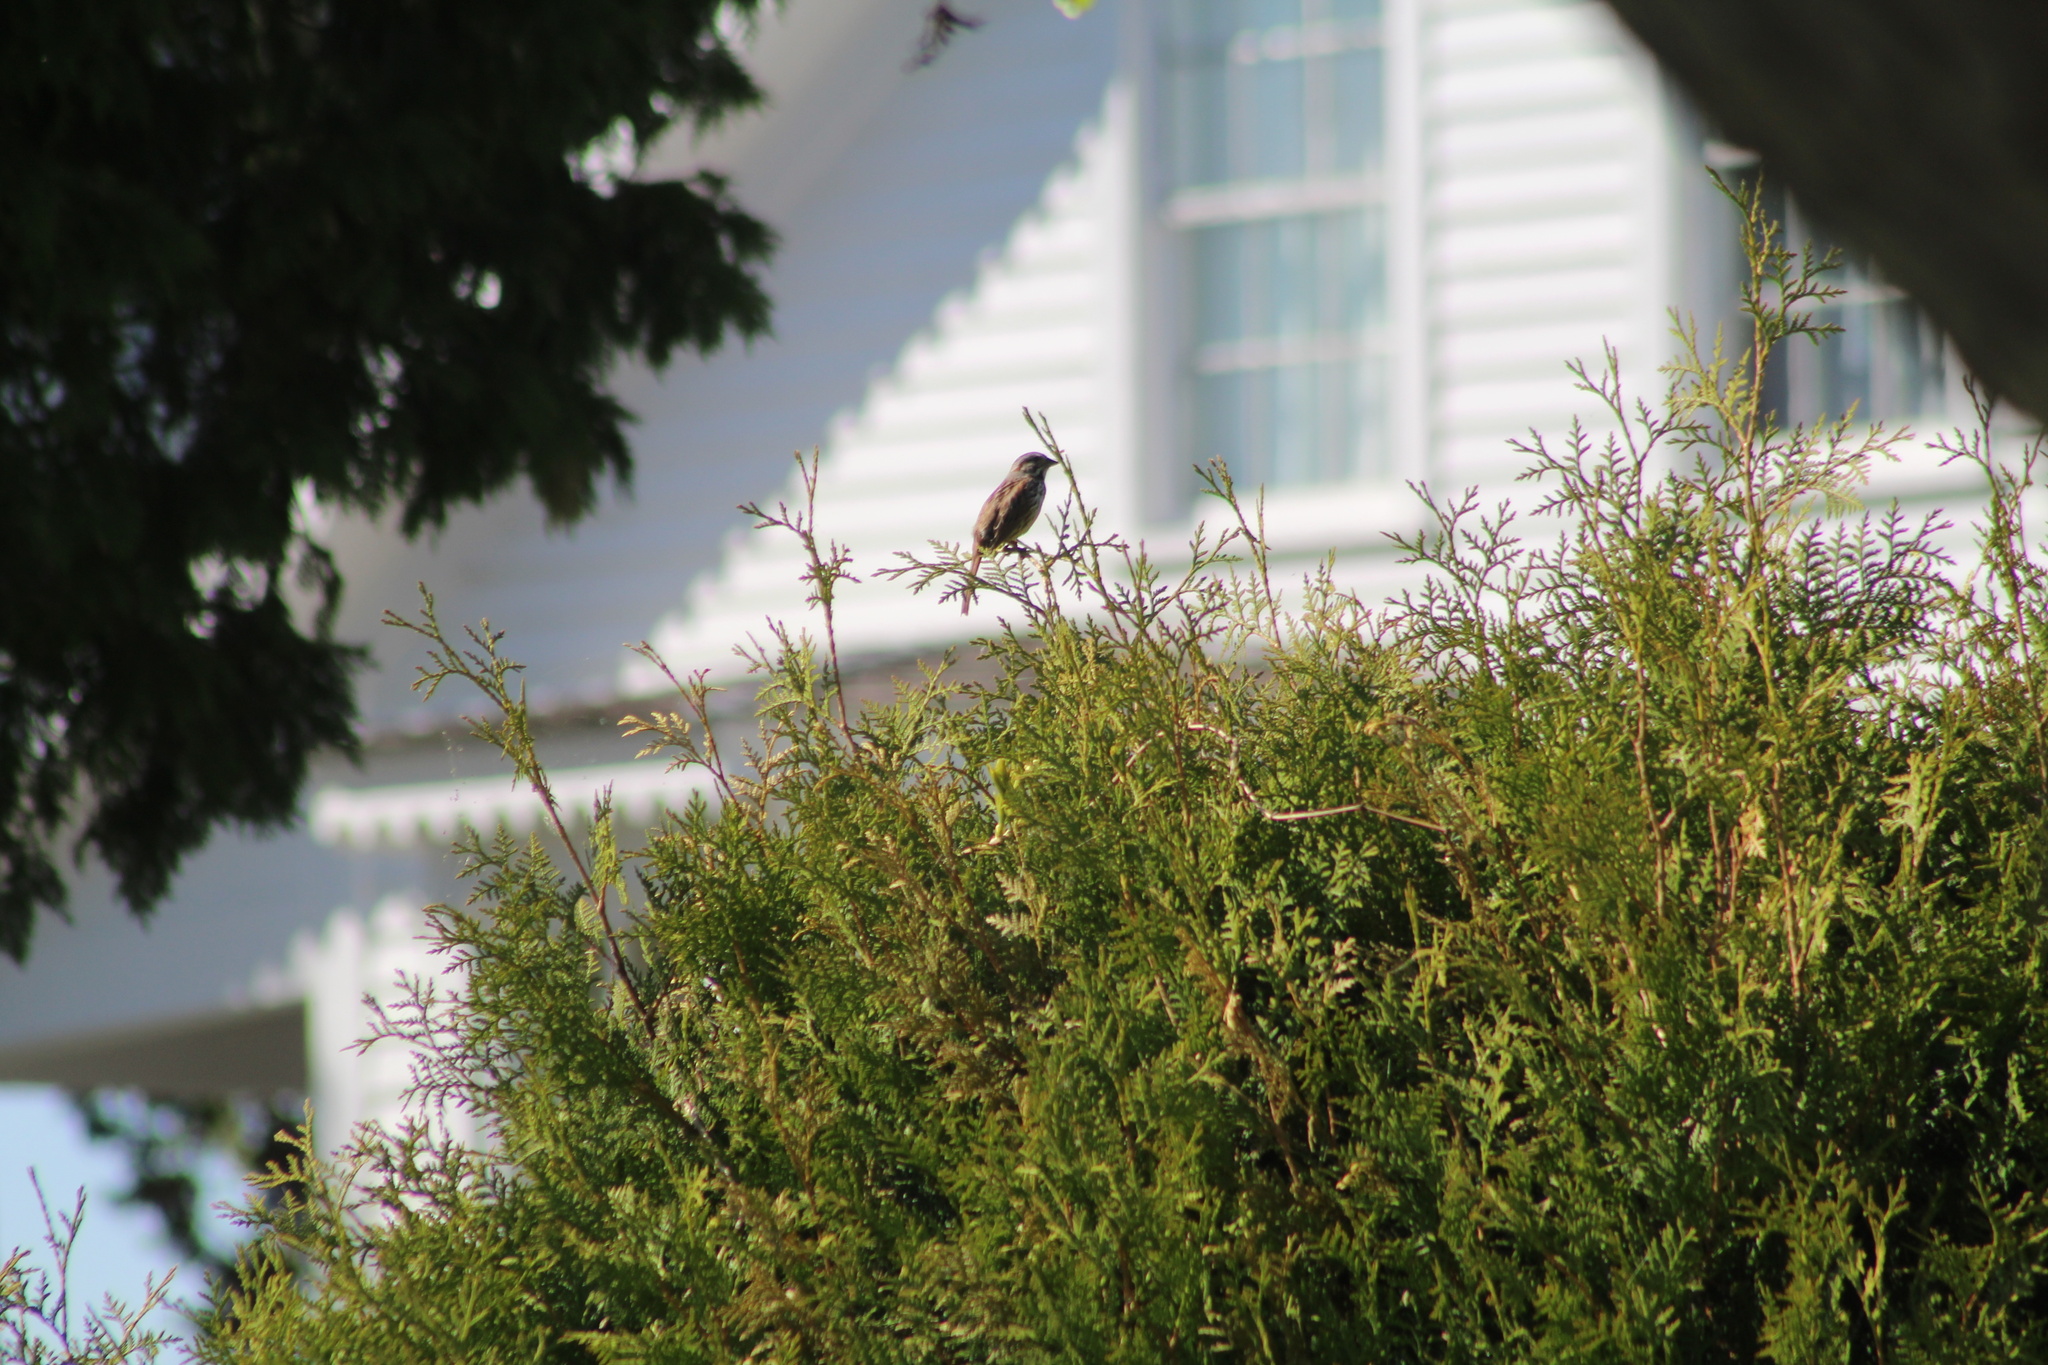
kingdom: Animalia
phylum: Chordata
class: Aves
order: Passeriformes
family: Passerellidae
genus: Melospiza
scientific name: Melospiza melodia
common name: Song sparrow
